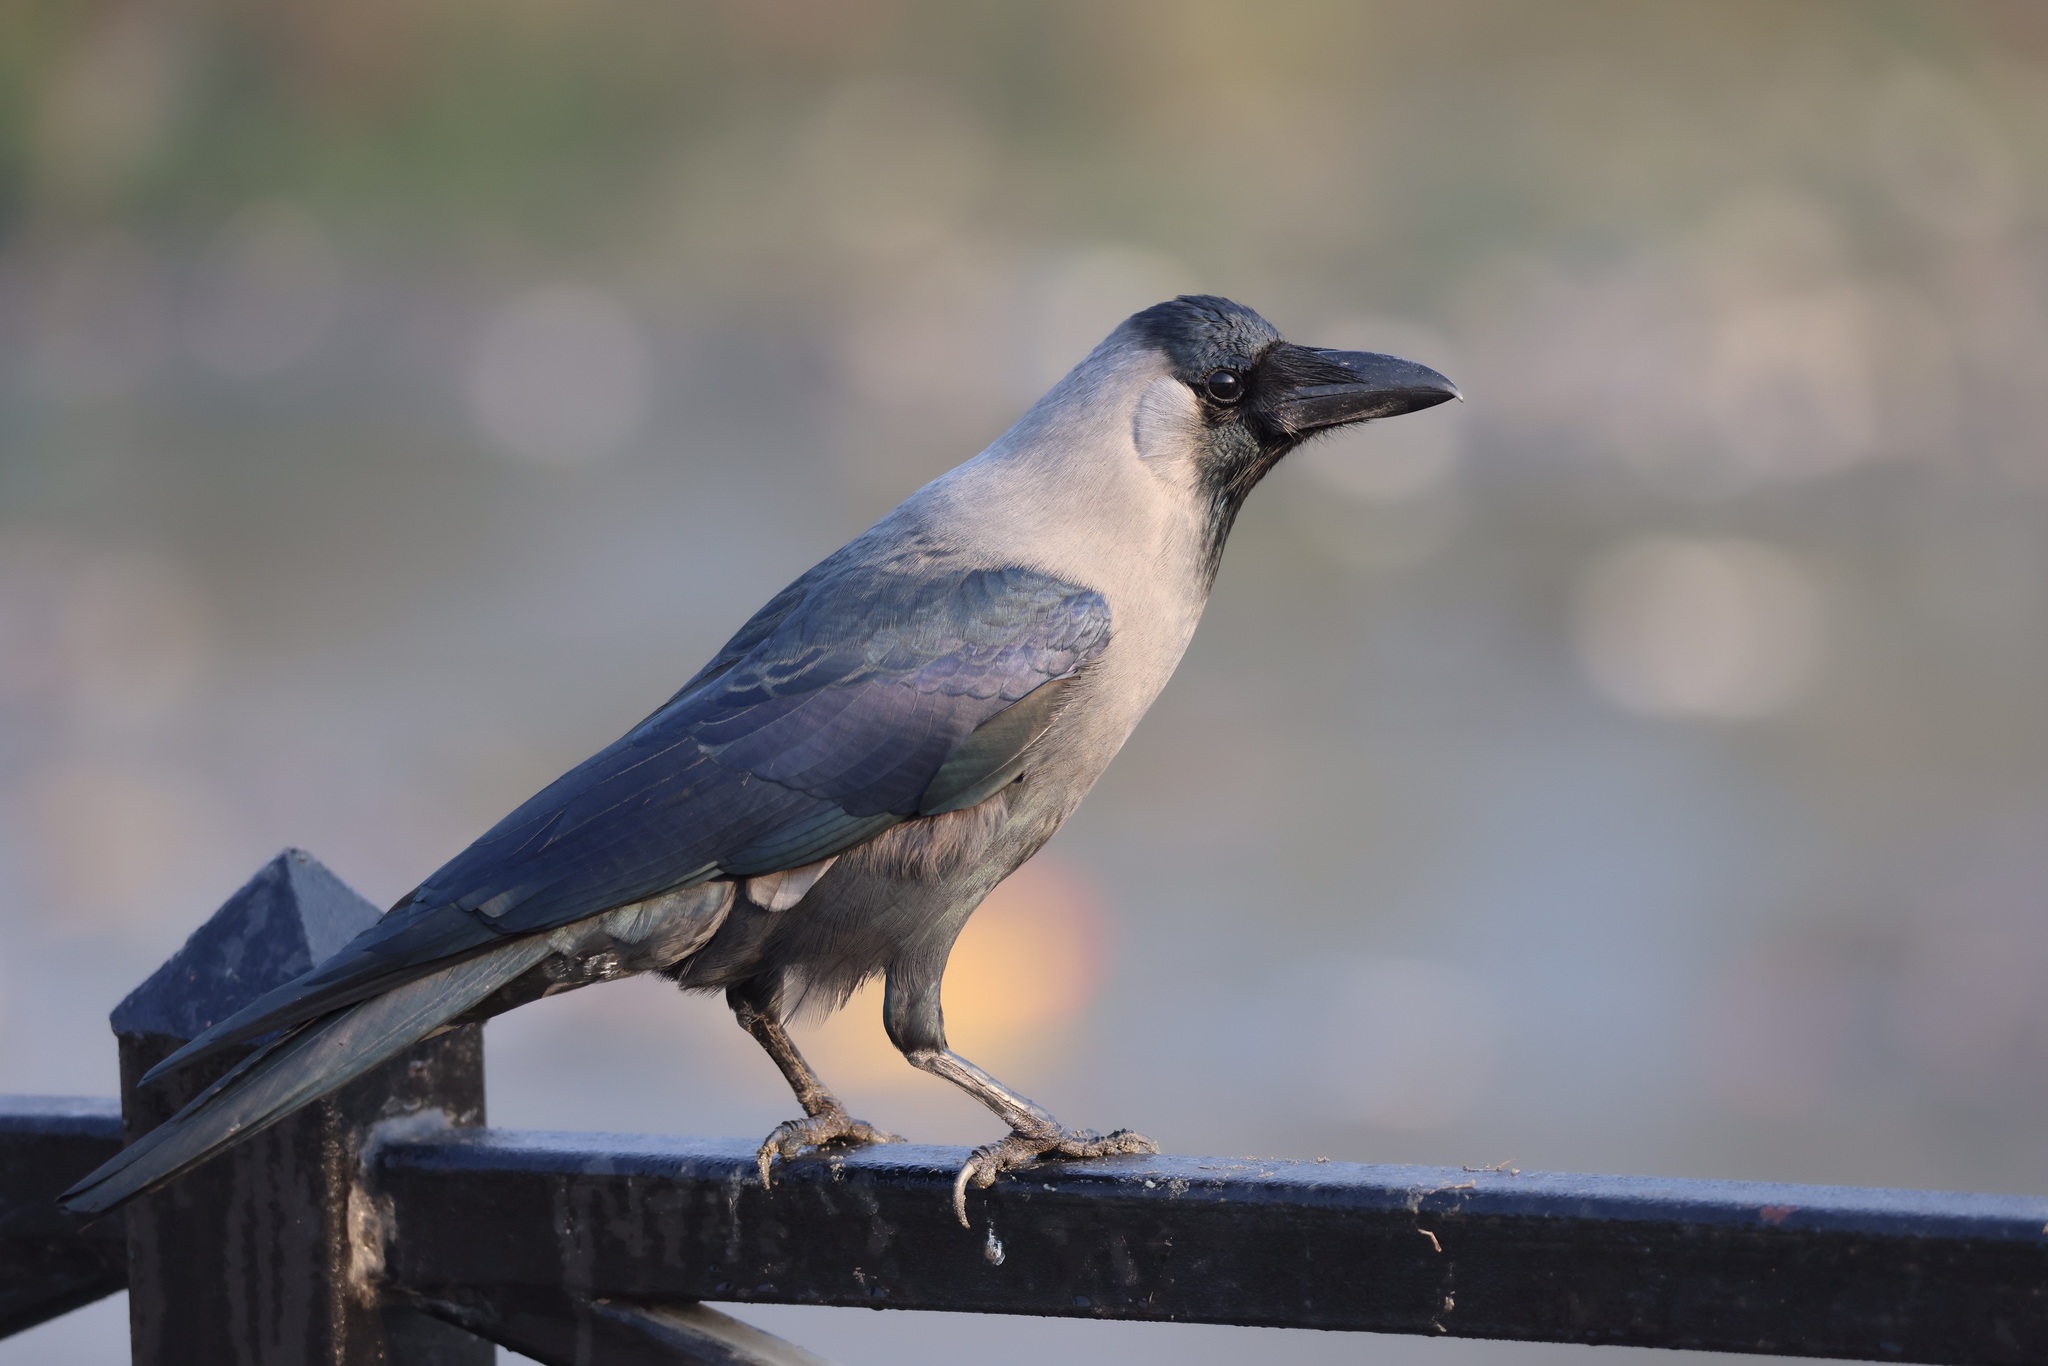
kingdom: Animalia
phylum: Chordata
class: Aves
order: Passeriformes
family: Corvidae
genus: Corvus
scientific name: Corvus splendens
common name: House crow
